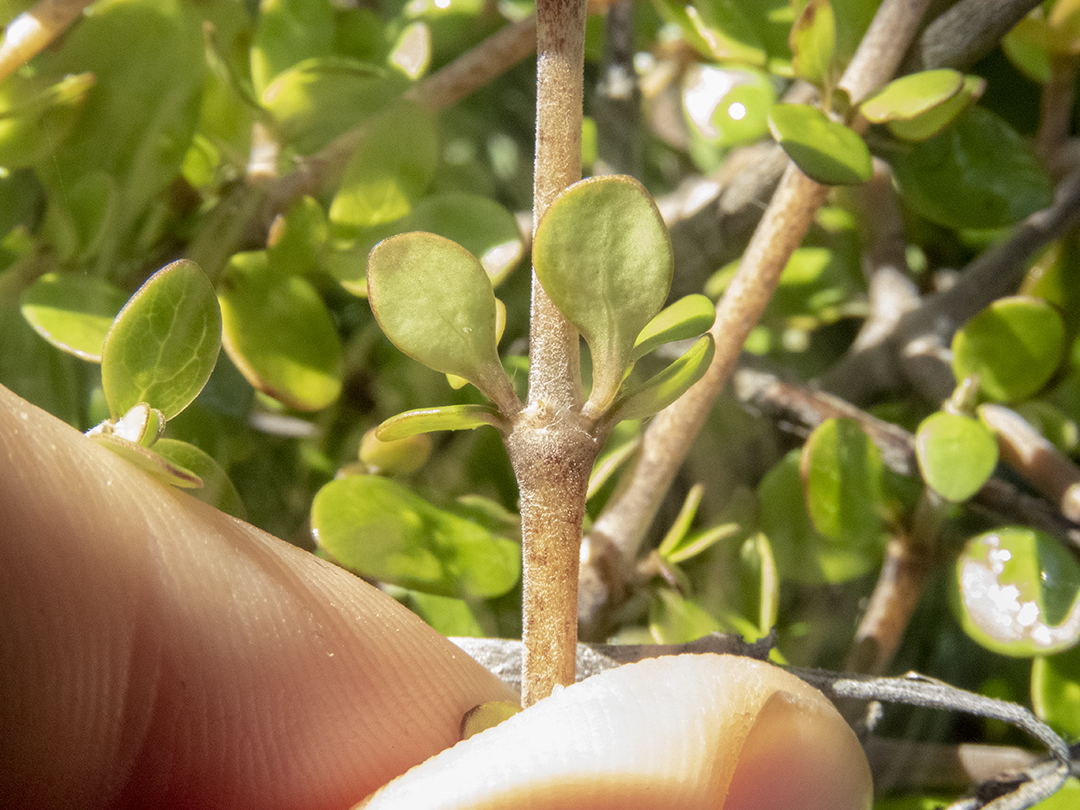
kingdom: Plantae
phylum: Tracheophyta
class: Magnoliopsida
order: Gentianales
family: Rubiaceae
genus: Coprosma
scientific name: Coprosma propinqua
